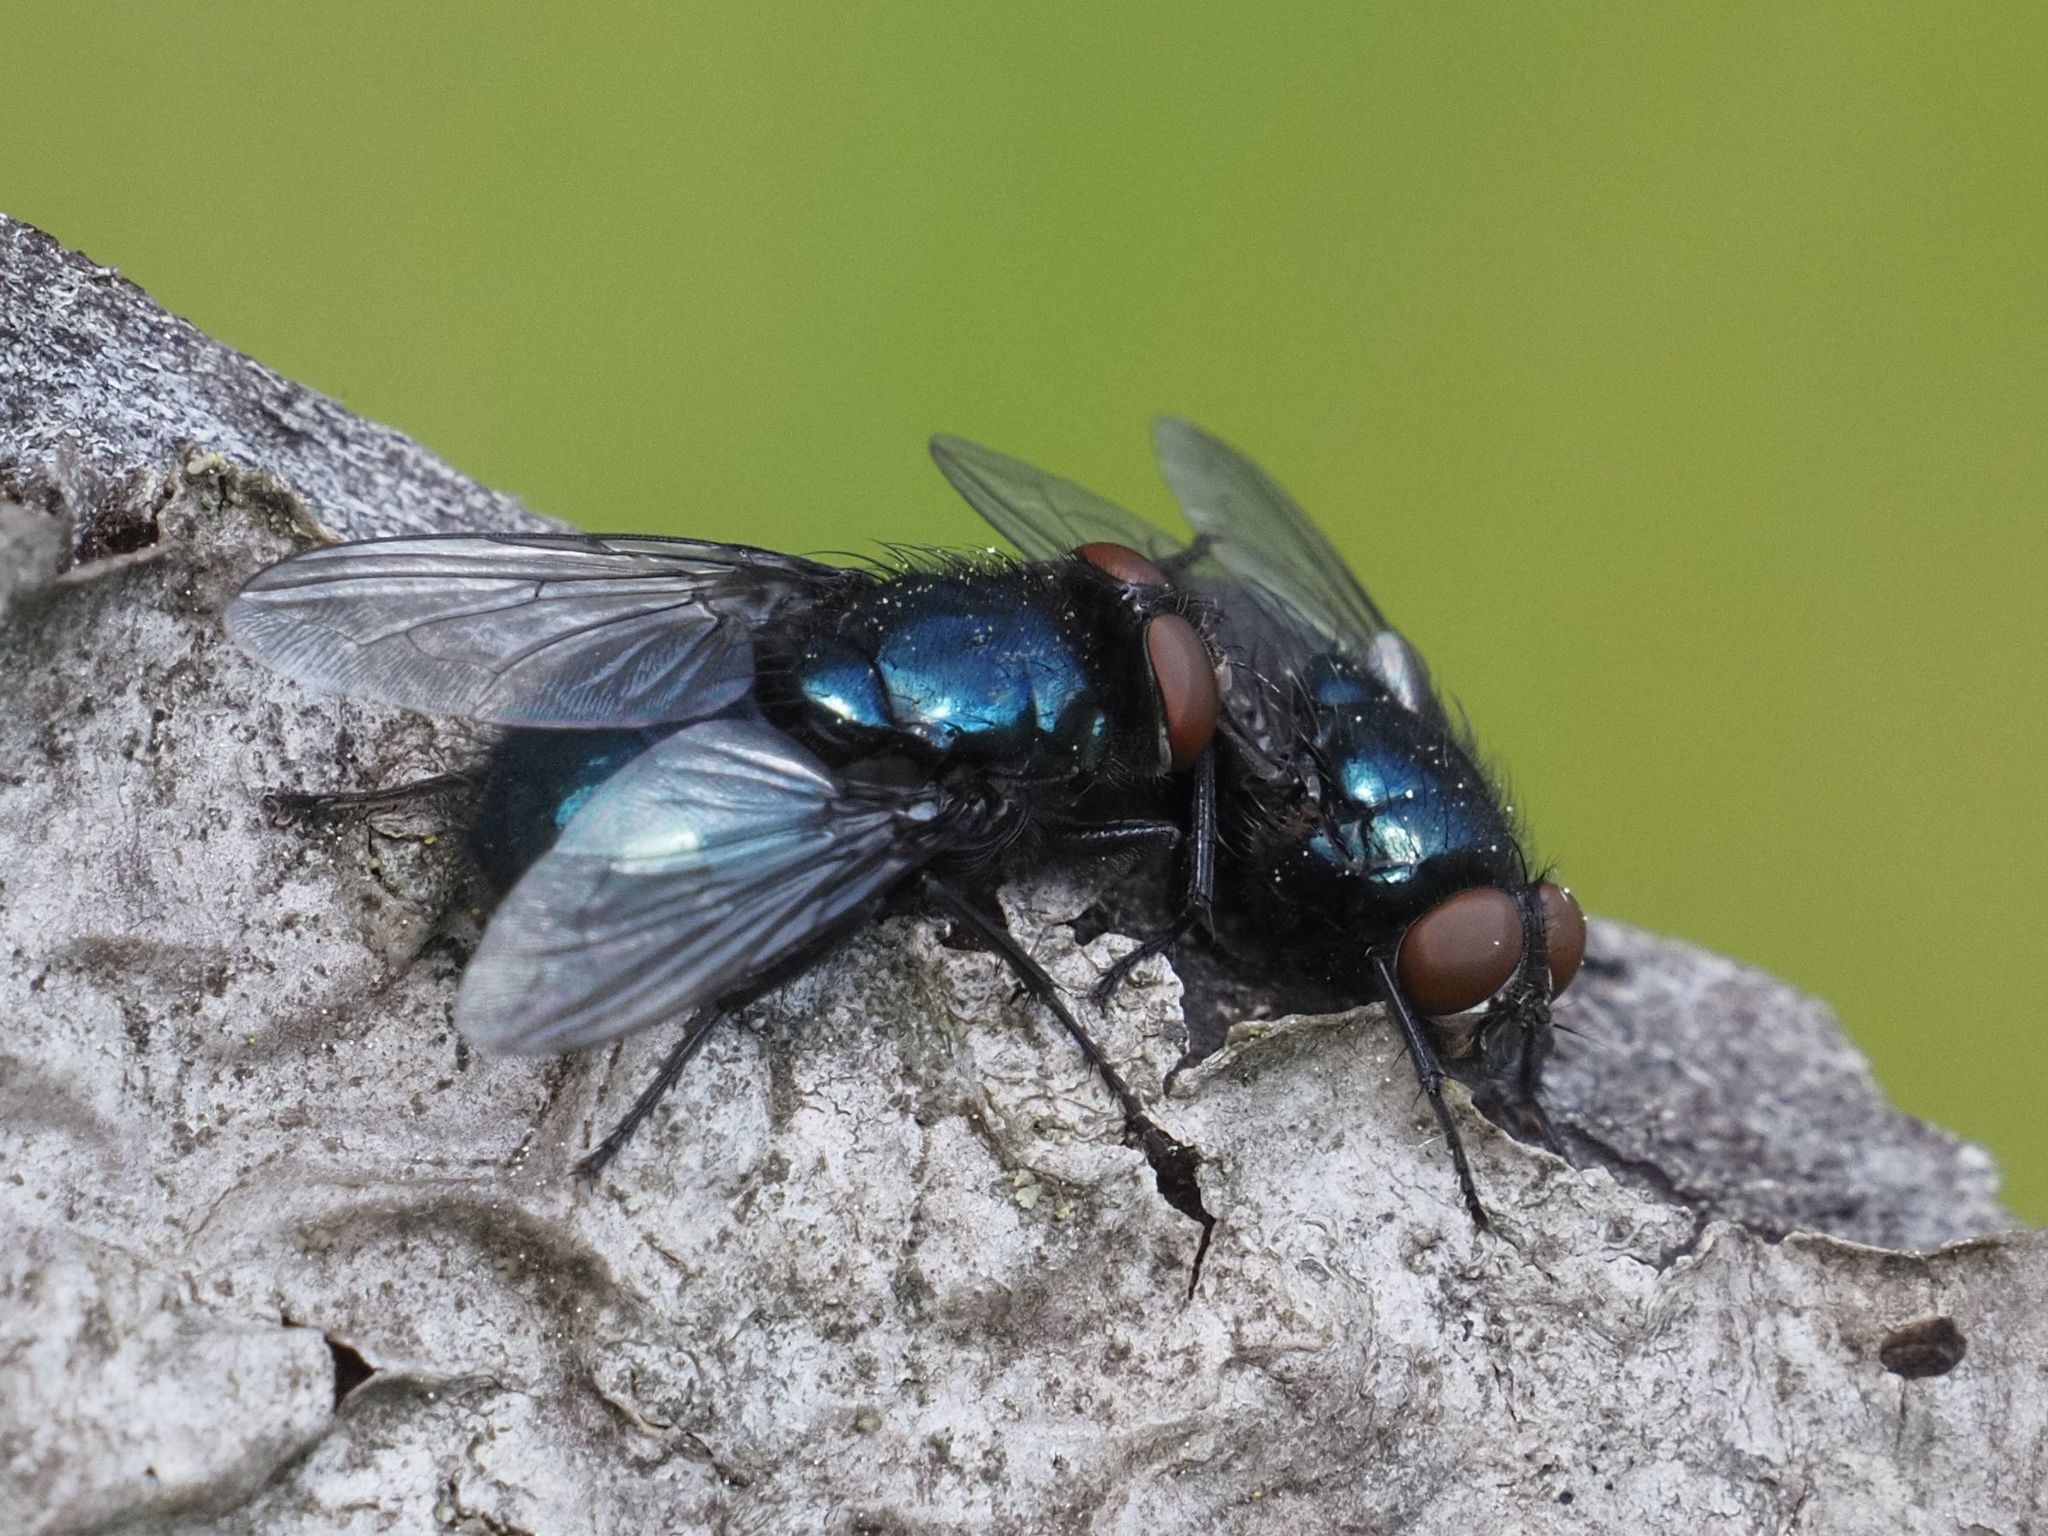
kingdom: Animalia
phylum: Arthropoda
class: Insecta
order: Diptera
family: Calliphoridae
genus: Protophormia
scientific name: Protophormia terraenovae
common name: Blackbottle
